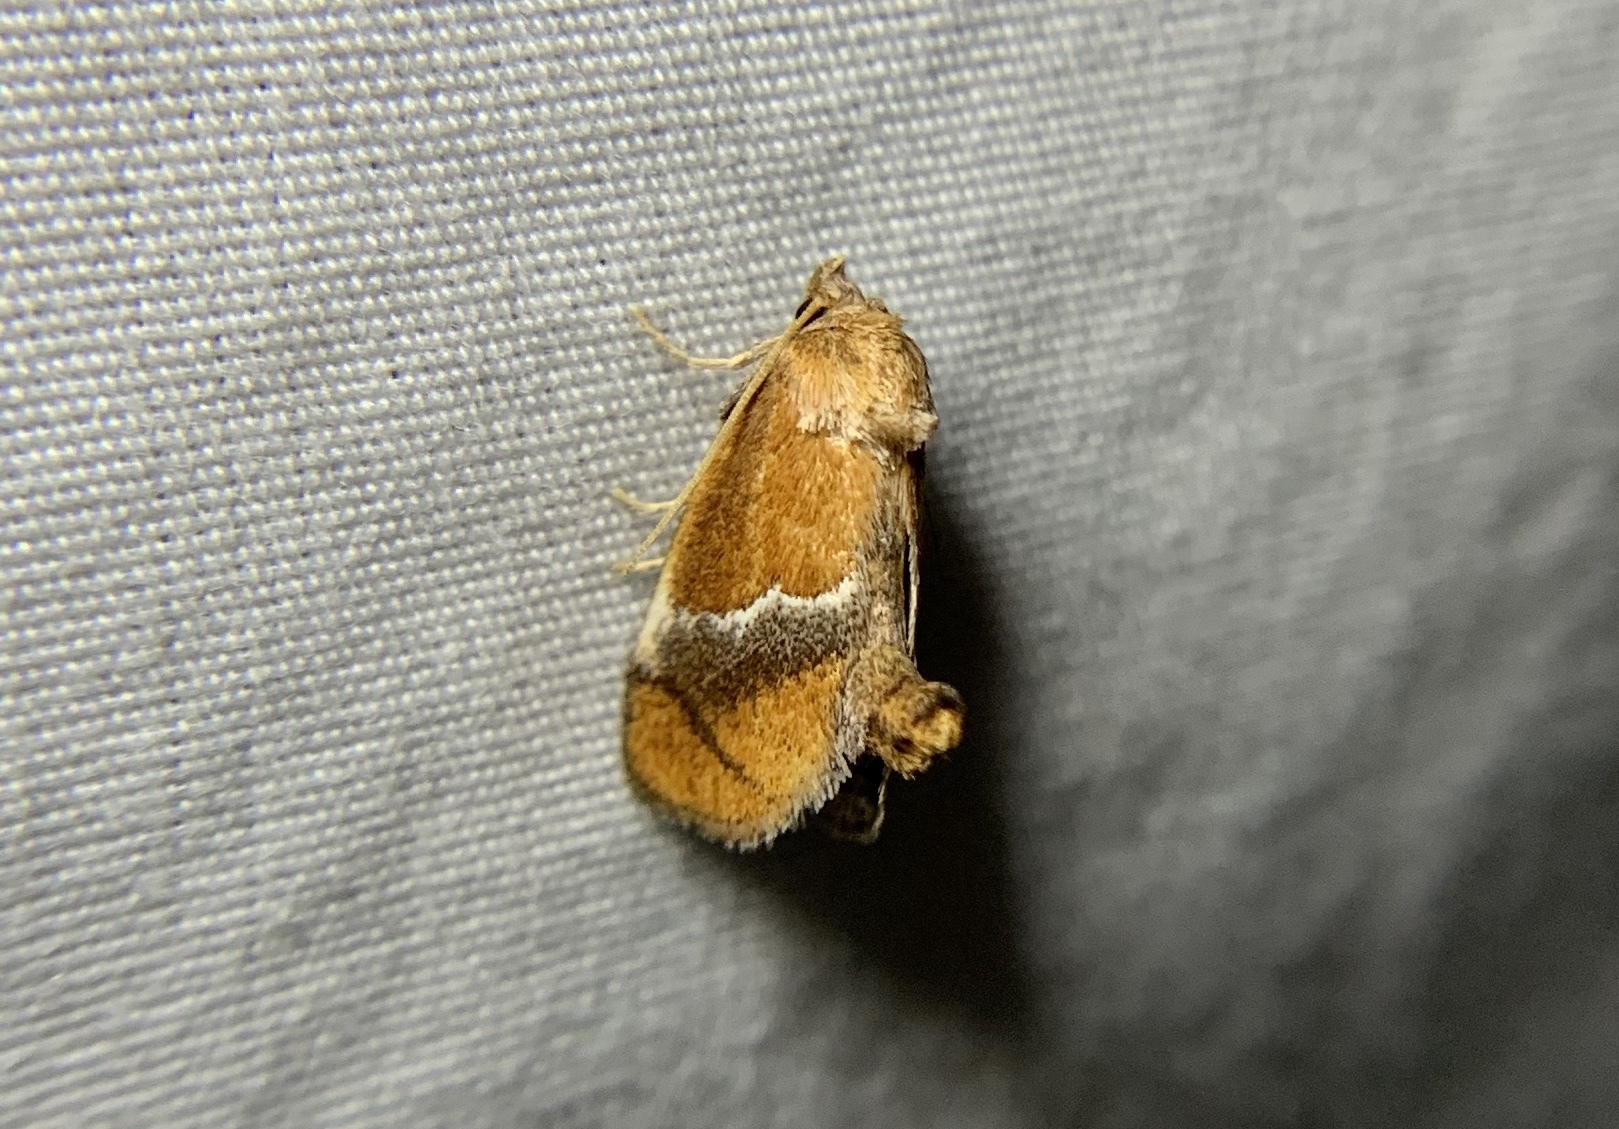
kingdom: Animalia
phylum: Arthropoda
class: Insecta
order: Lepidoptera
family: Limacodidae
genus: Lithacodes
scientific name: Lithacodes fasciola
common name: Yellow-shouldered slug moth
